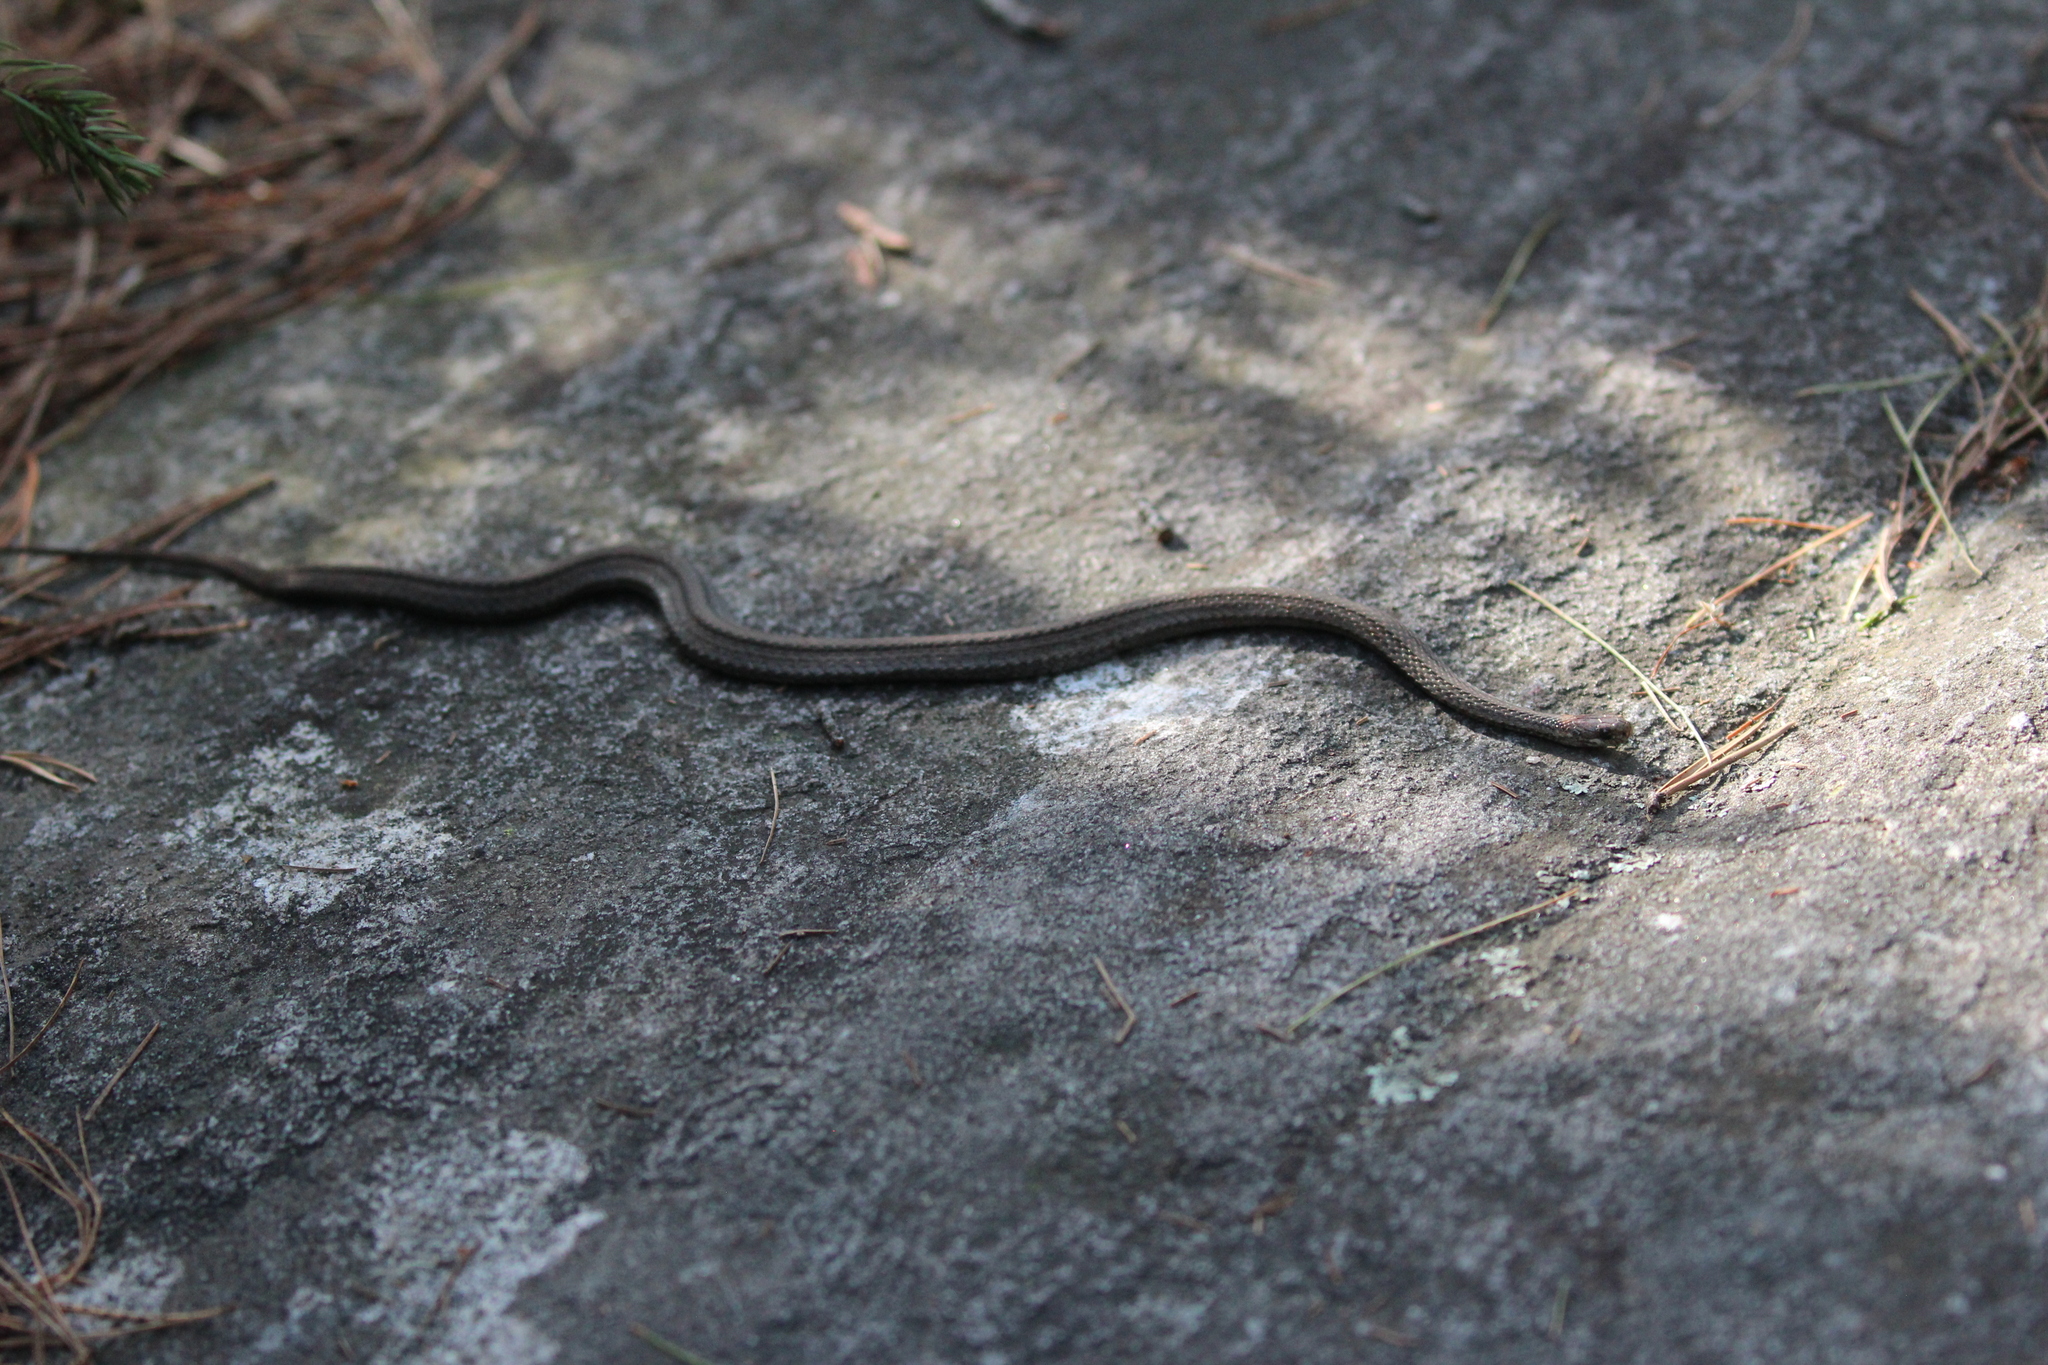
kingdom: Animalia
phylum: Chordata
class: Squamata
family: Colubridae
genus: Storeria
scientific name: Storeria occipitomaculata
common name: Redbelly snake
